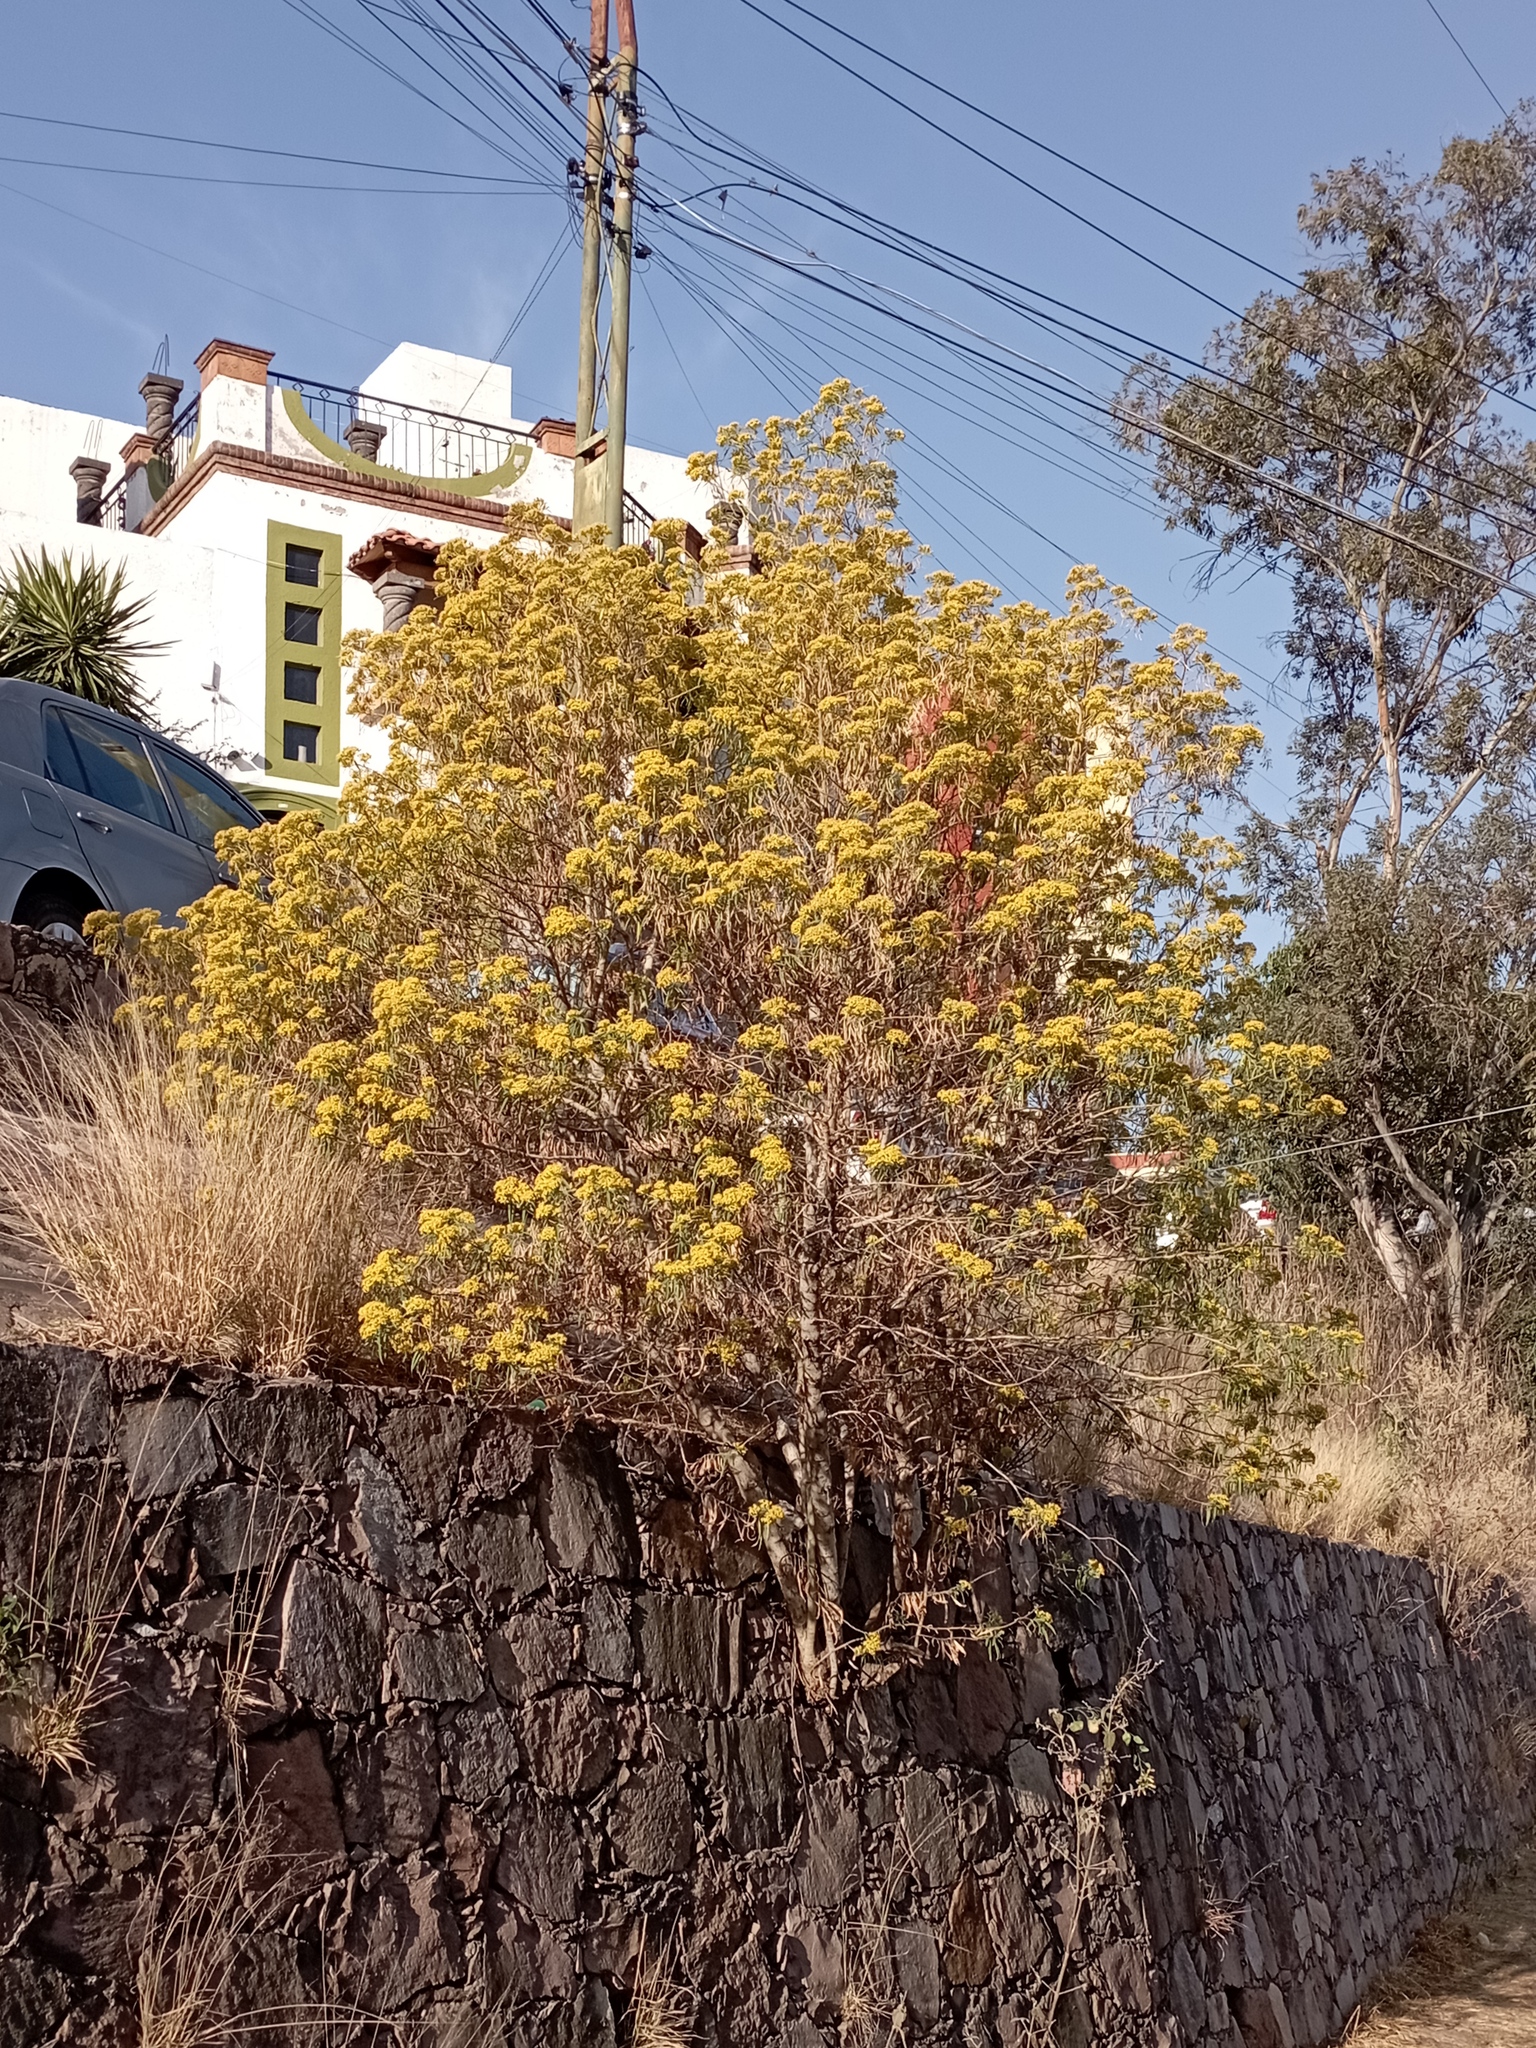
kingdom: Plantae
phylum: Tracheophyta
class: Magnoliopsida
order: Asterales
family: Asteraceae
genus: Barkleyanthus
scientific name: Barkleyanthus salicifolius
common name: Willow ragwort
